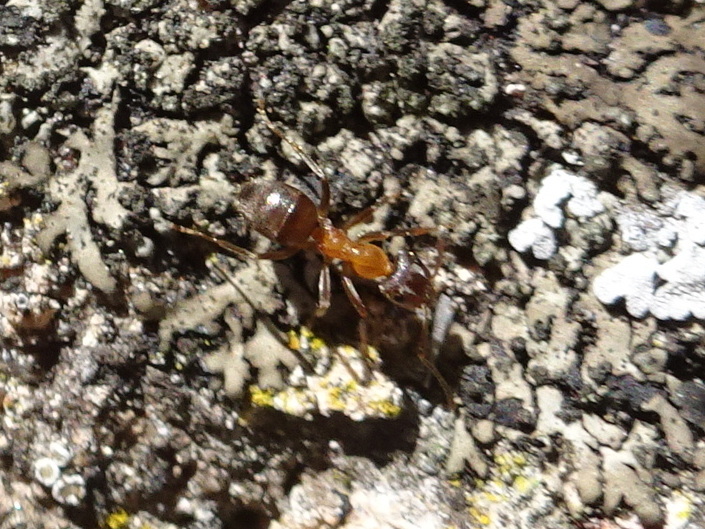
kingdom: Animalia
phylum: Arthropoda
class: Insecta
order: Hymenoptera
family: Formicidae
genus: Lasius
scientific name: Lasius emarginatus
